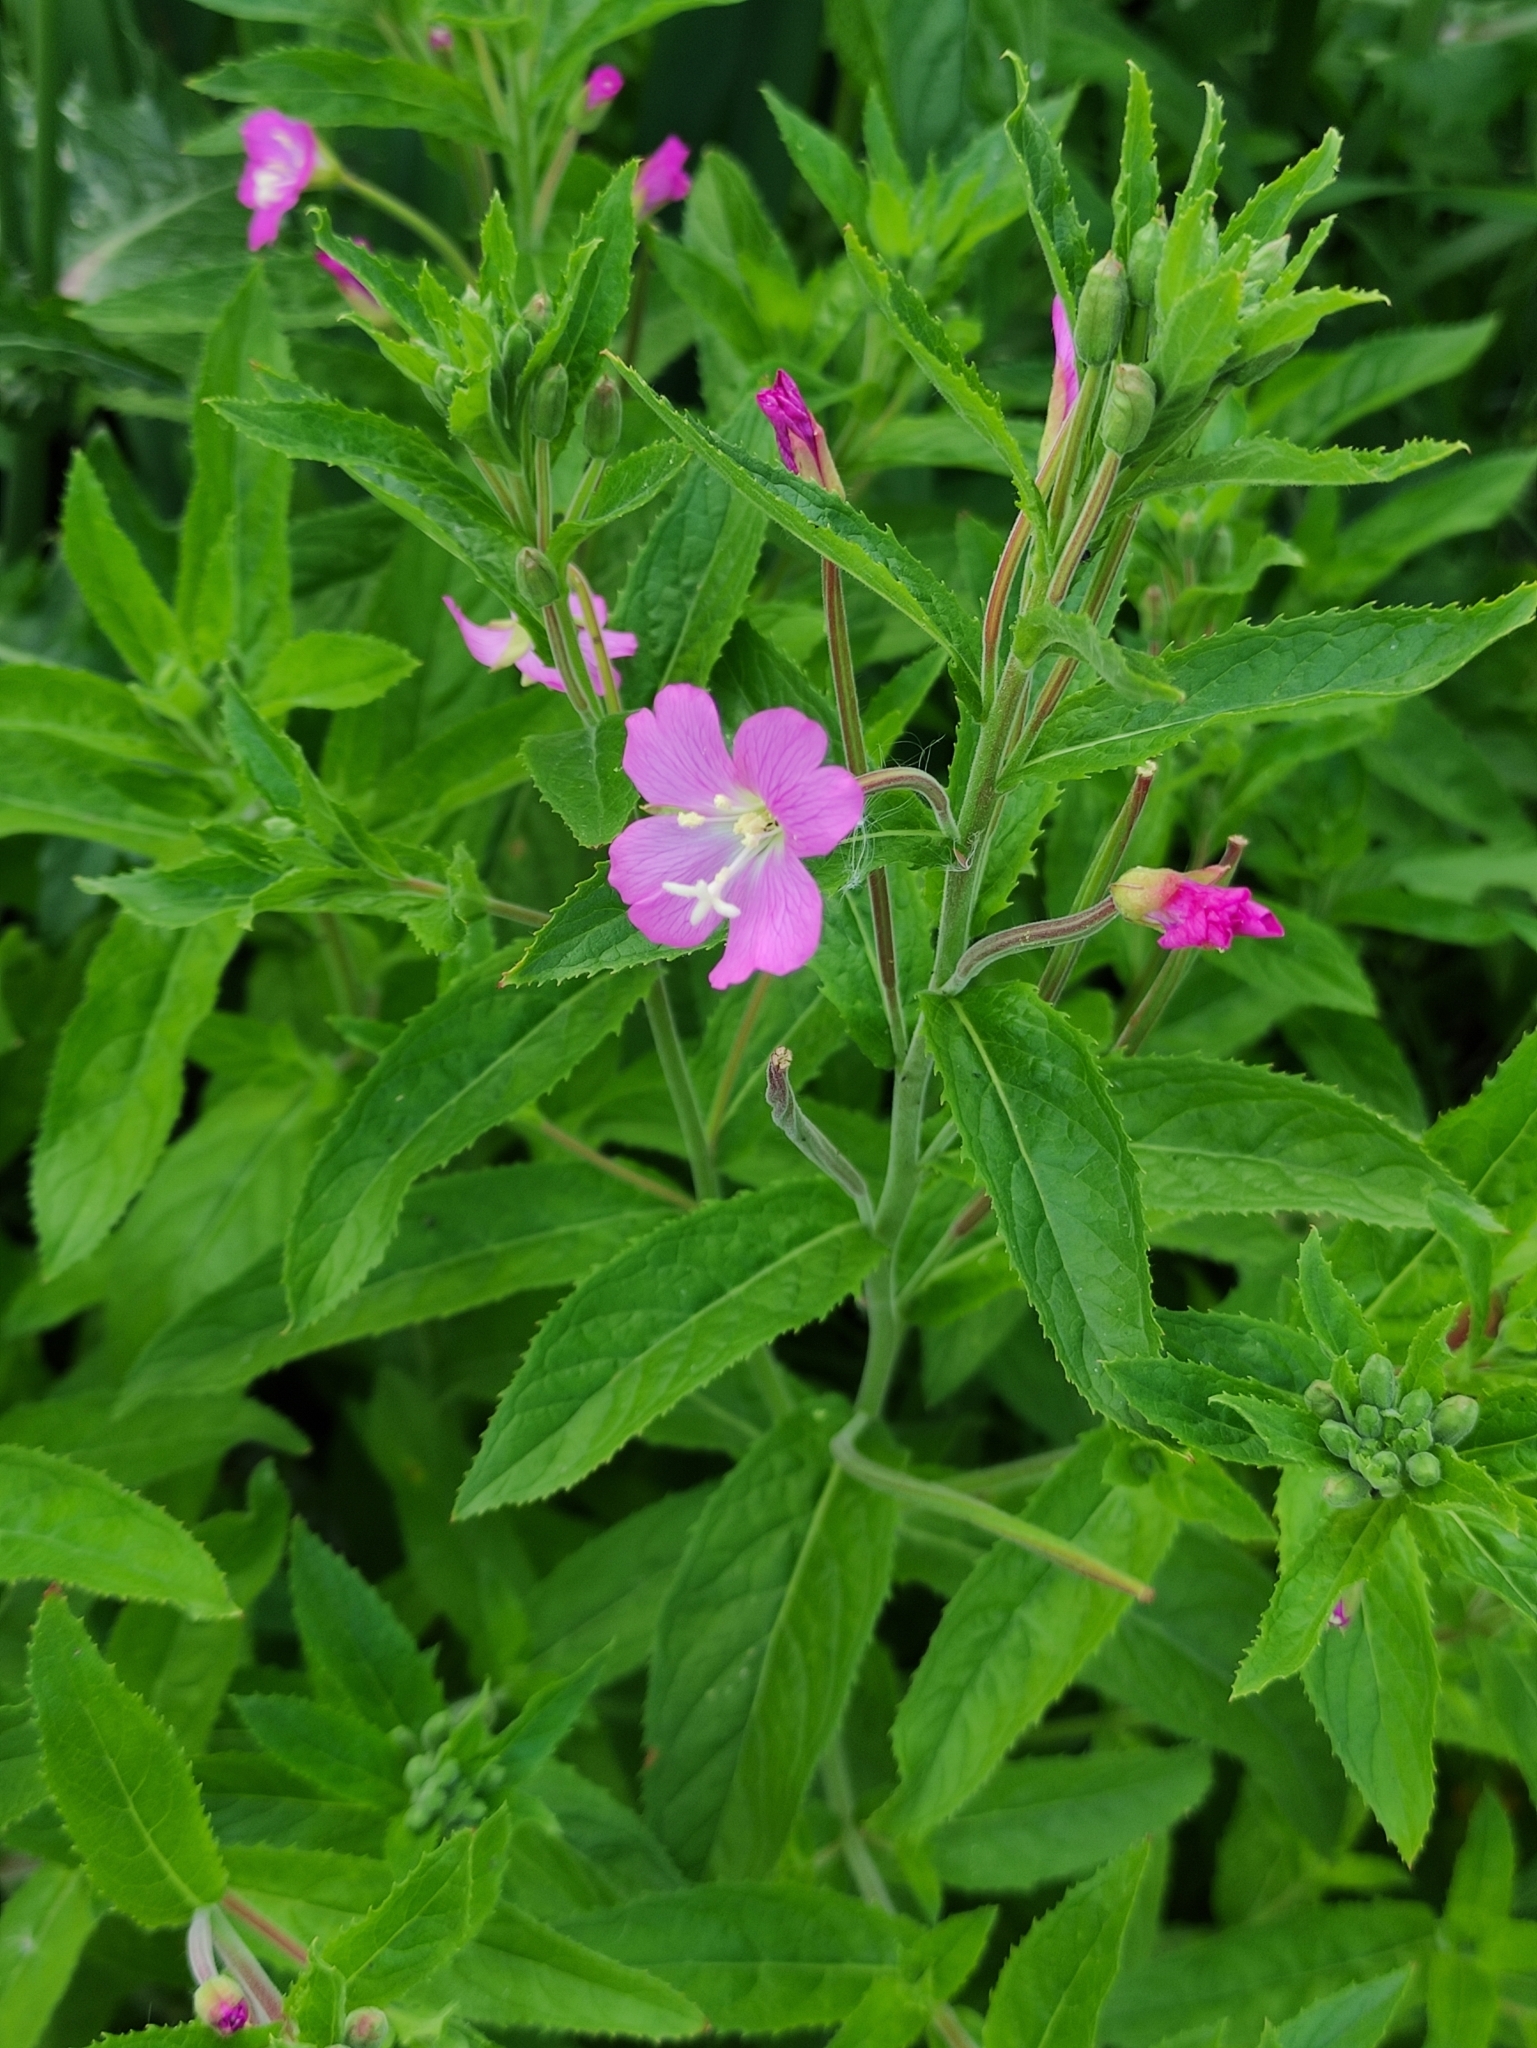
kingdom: Plantae
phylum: Tracheophyta
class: Magnoliopsida
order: Myrtales
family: Onagraceae
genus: Epilobium
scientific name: Epilobium hirsutum
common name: Great willowherb
